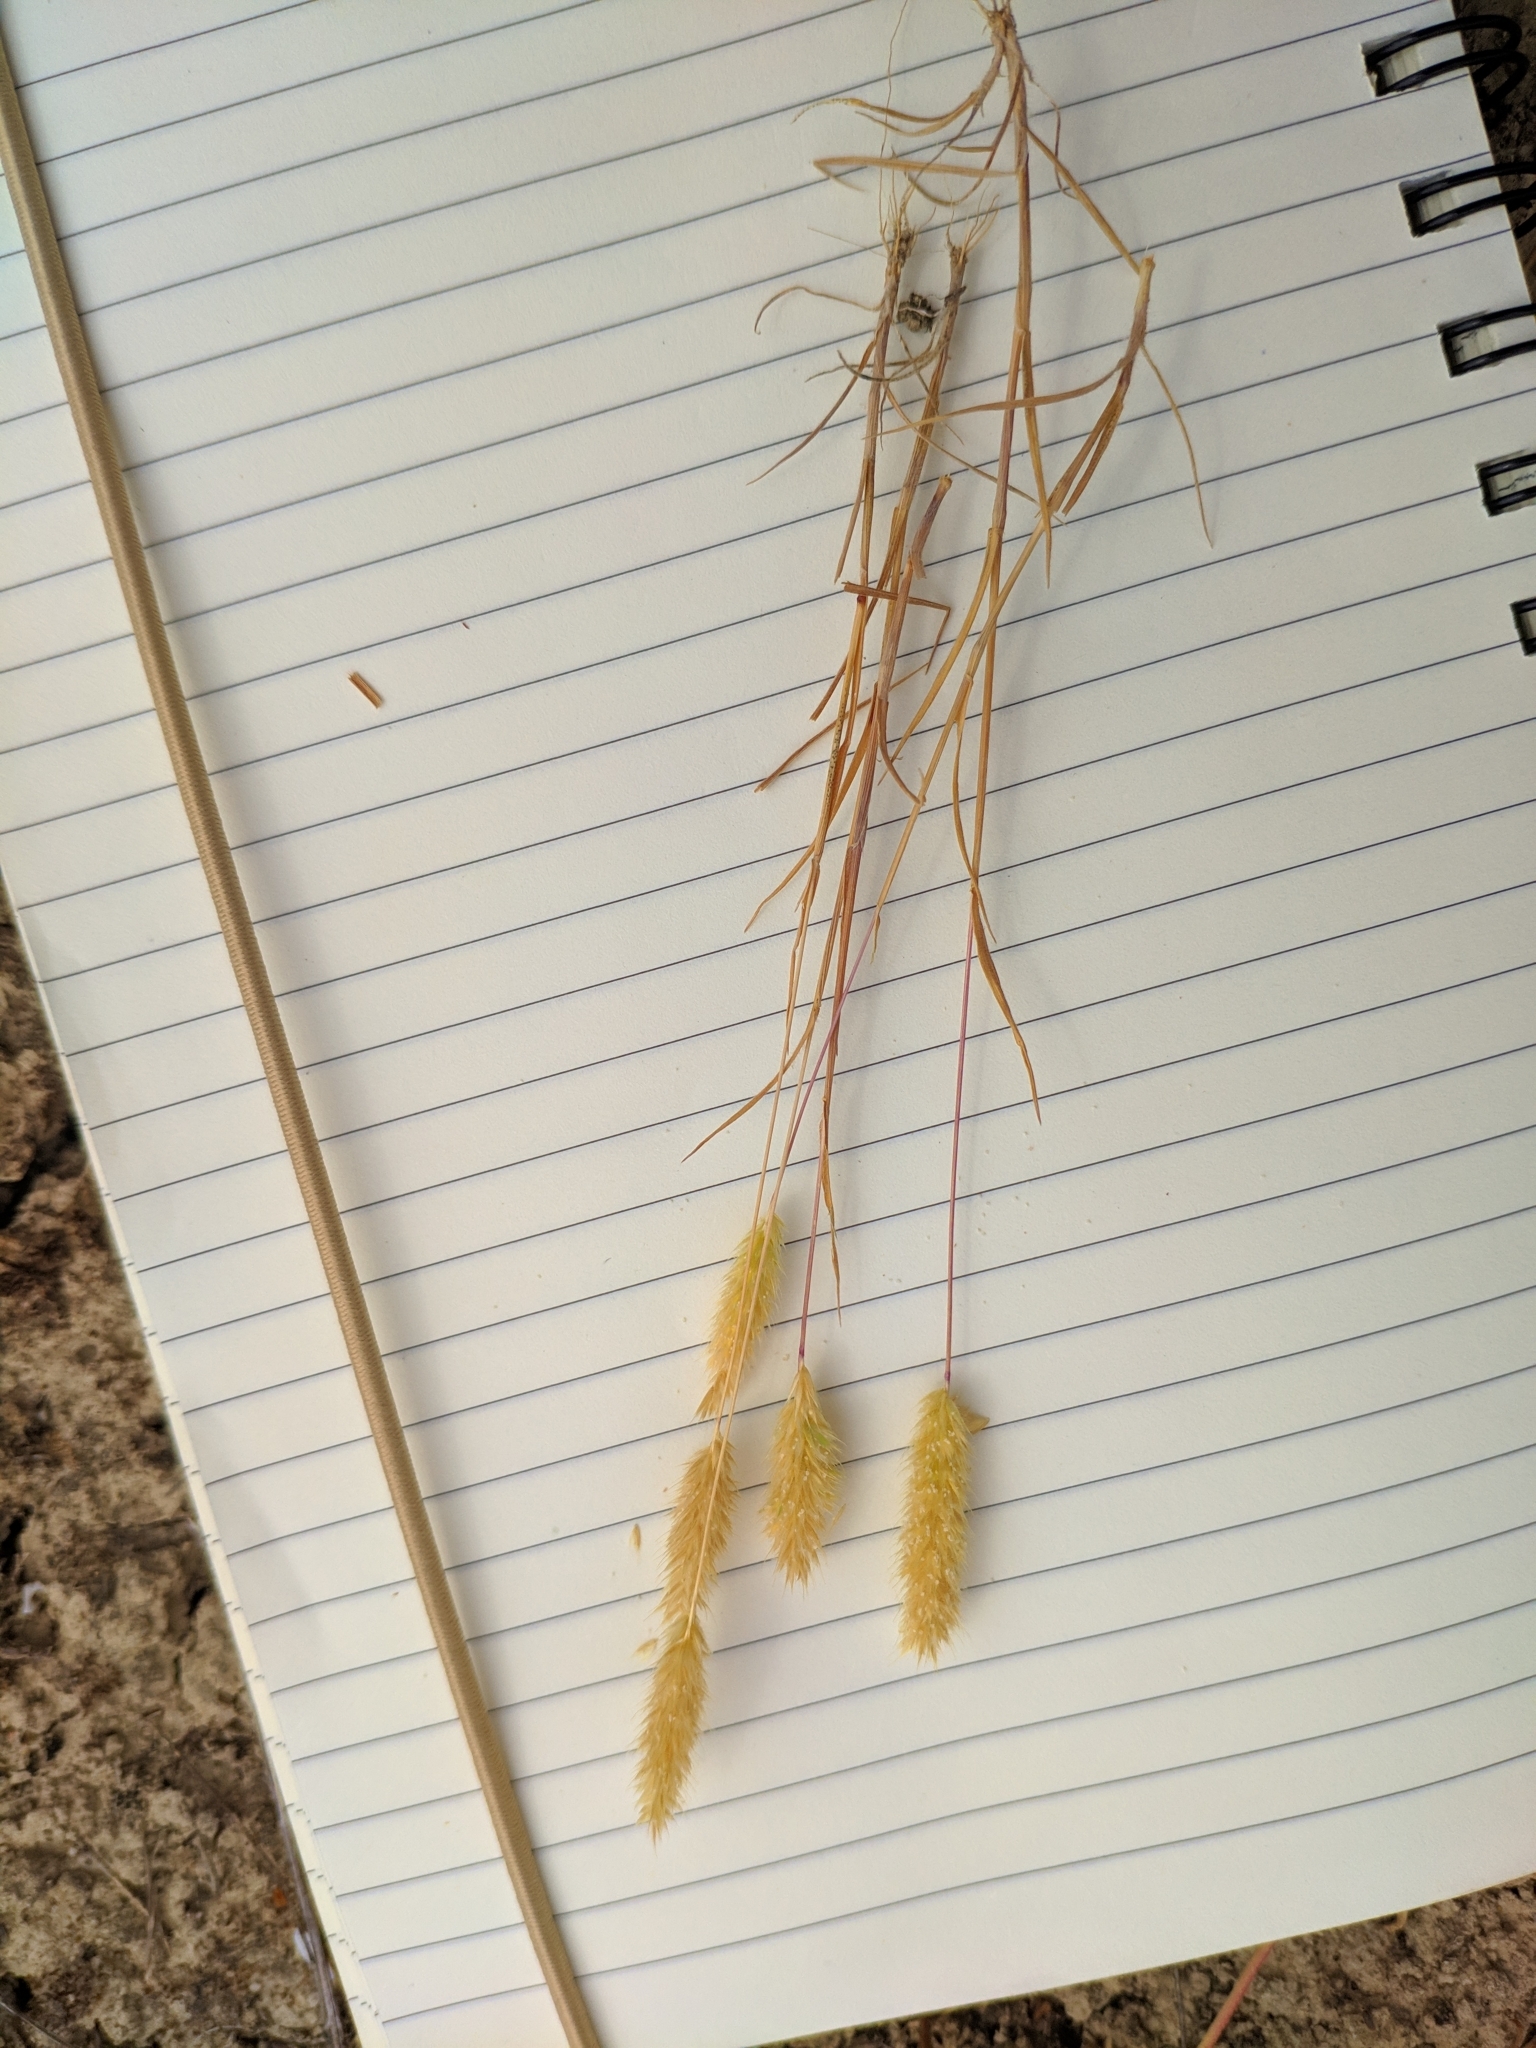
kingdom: Plantae
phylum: Tracheophyta
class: Liliopsida
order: Poales
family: Poaceae
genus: Rostraria
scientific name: Rostraria cristata
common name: Mediterranean hair-grass
